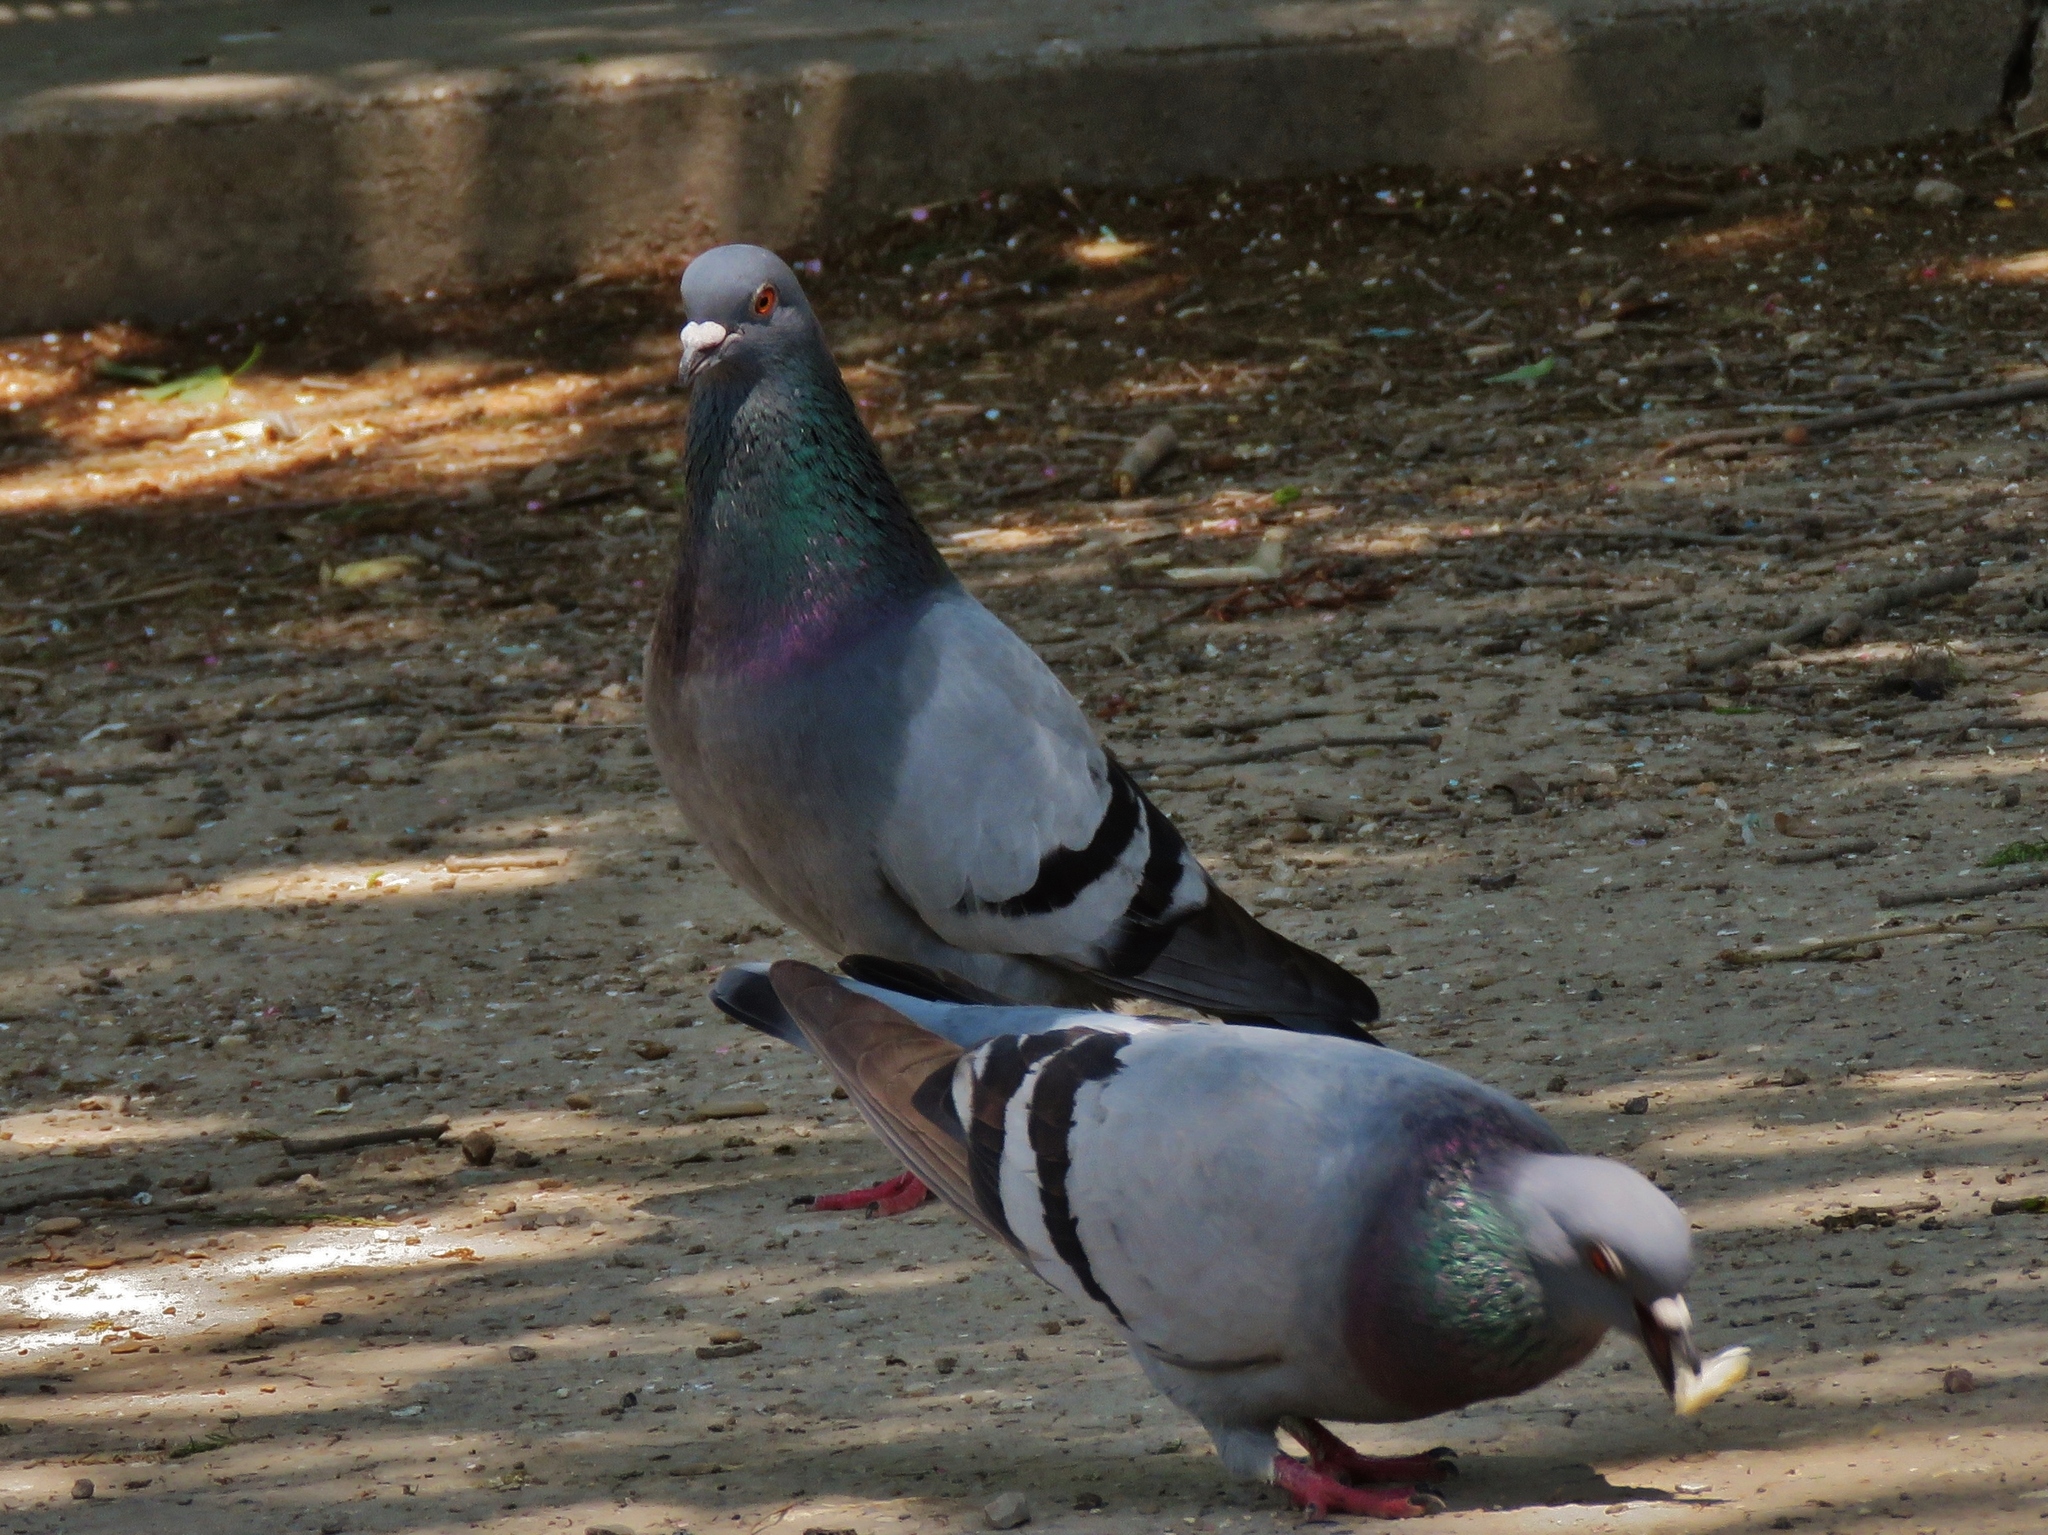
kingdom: Animalia
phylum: Chordata
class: Aves
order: Columbiformes
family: Columbidae
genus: Columba
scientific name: Columba livia
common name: Rock pigeon
